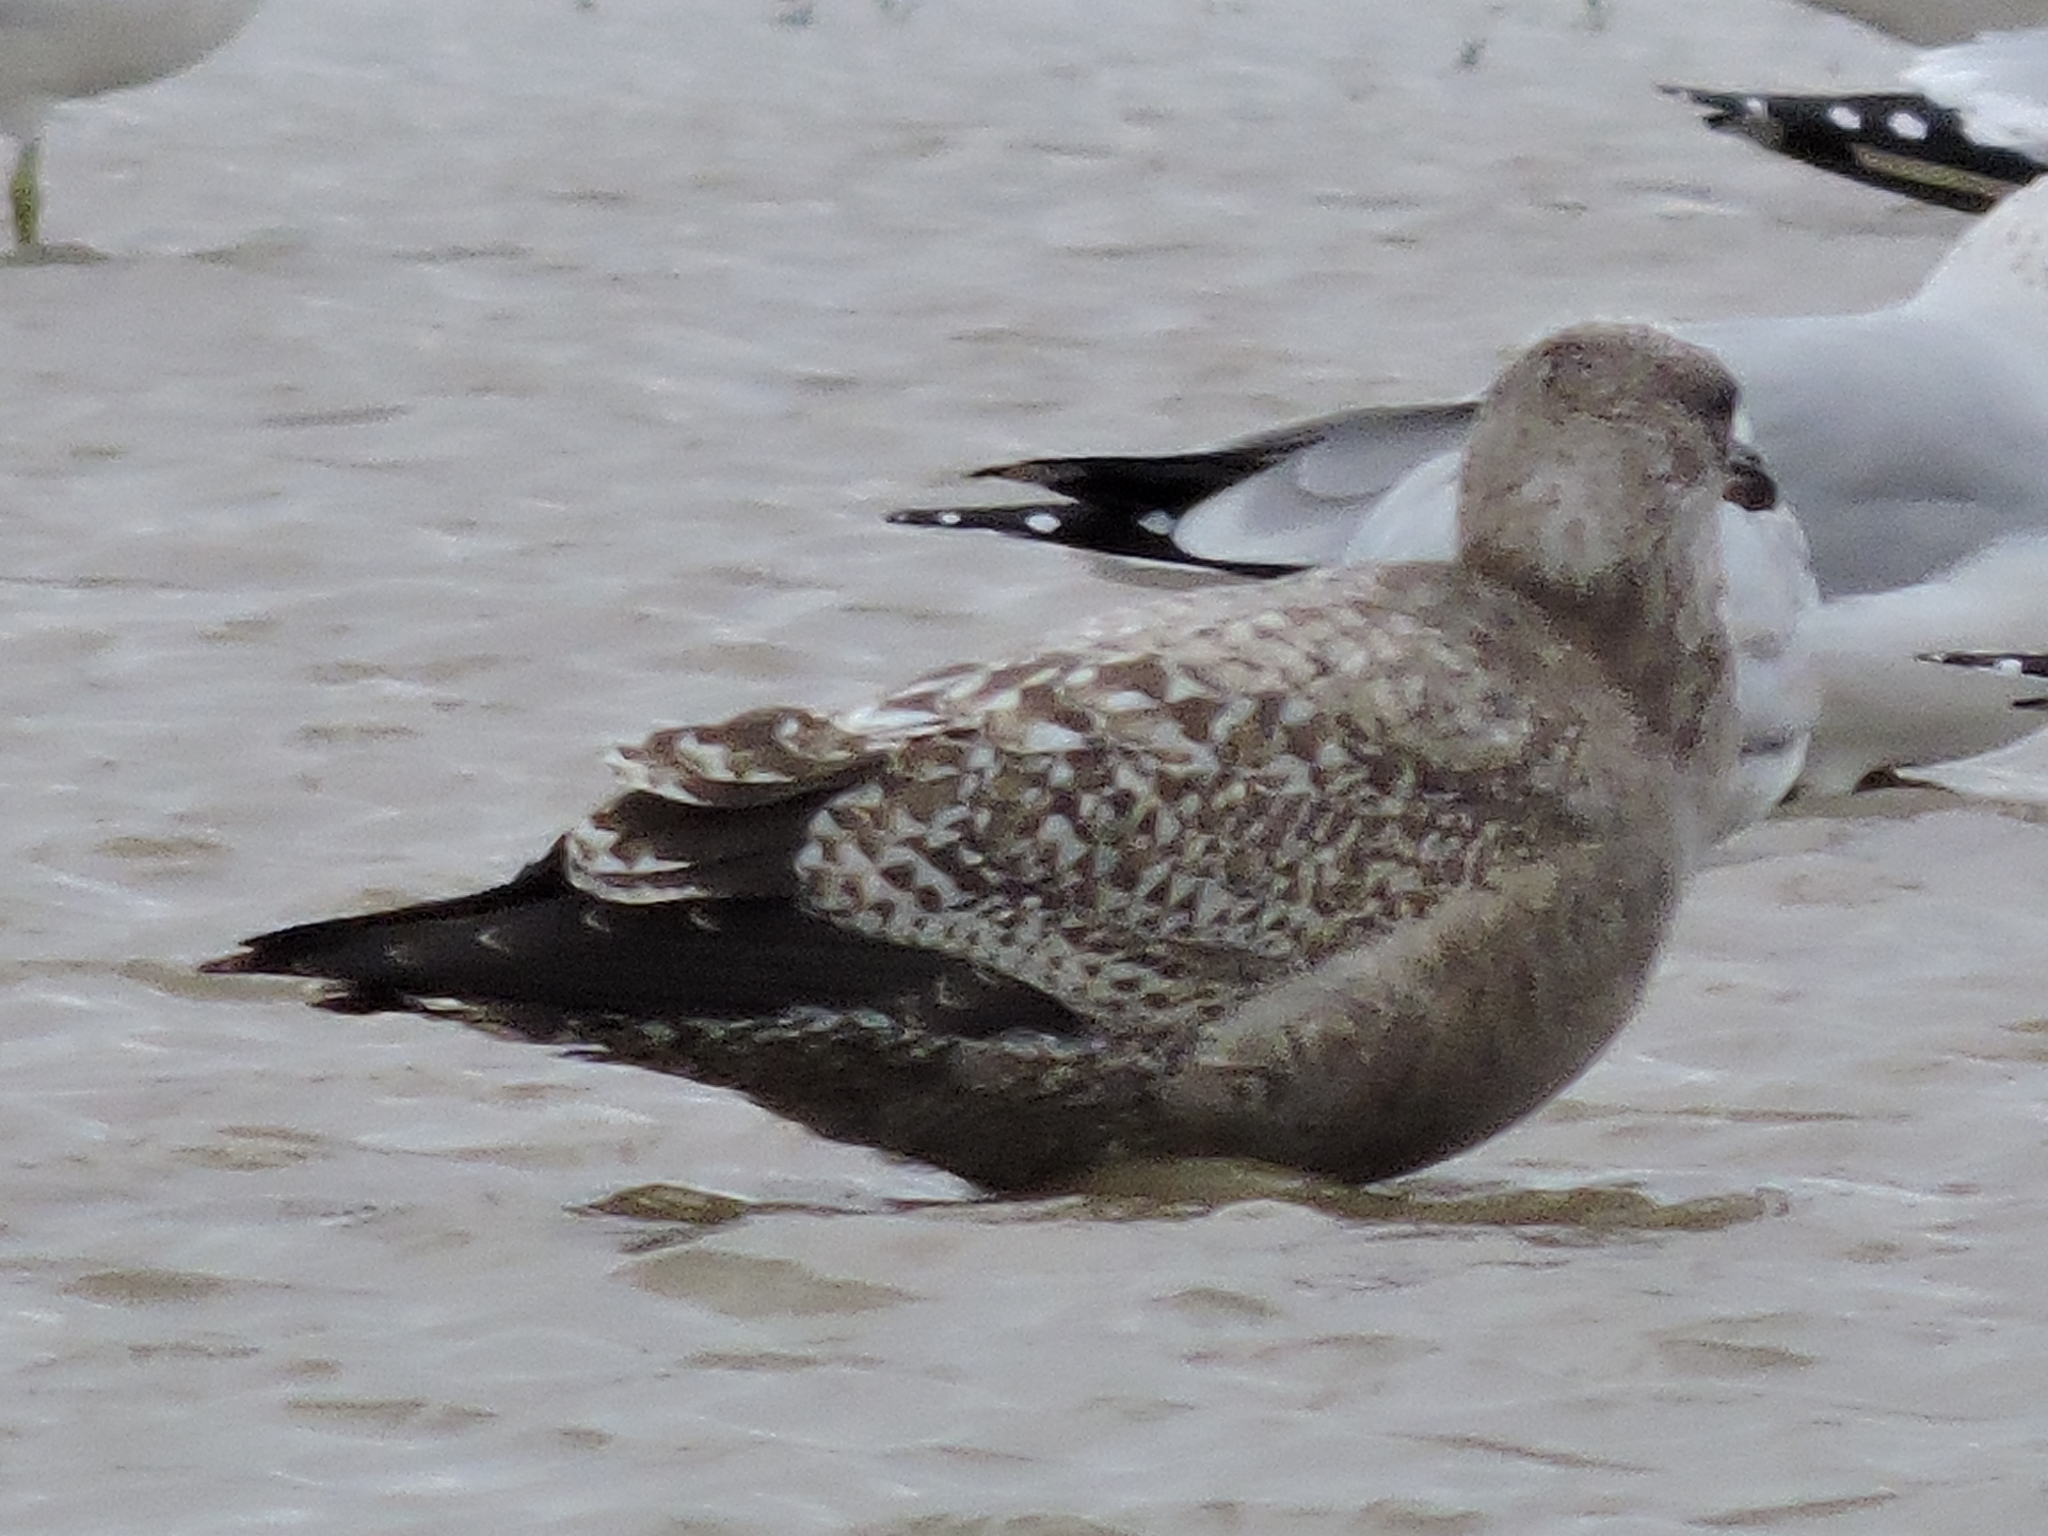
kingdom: Animalia
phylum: Chordata
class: Aves
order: Charadriiformes
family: Laridae
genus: Larus
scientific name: Larus argentatus
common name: Herring gull
